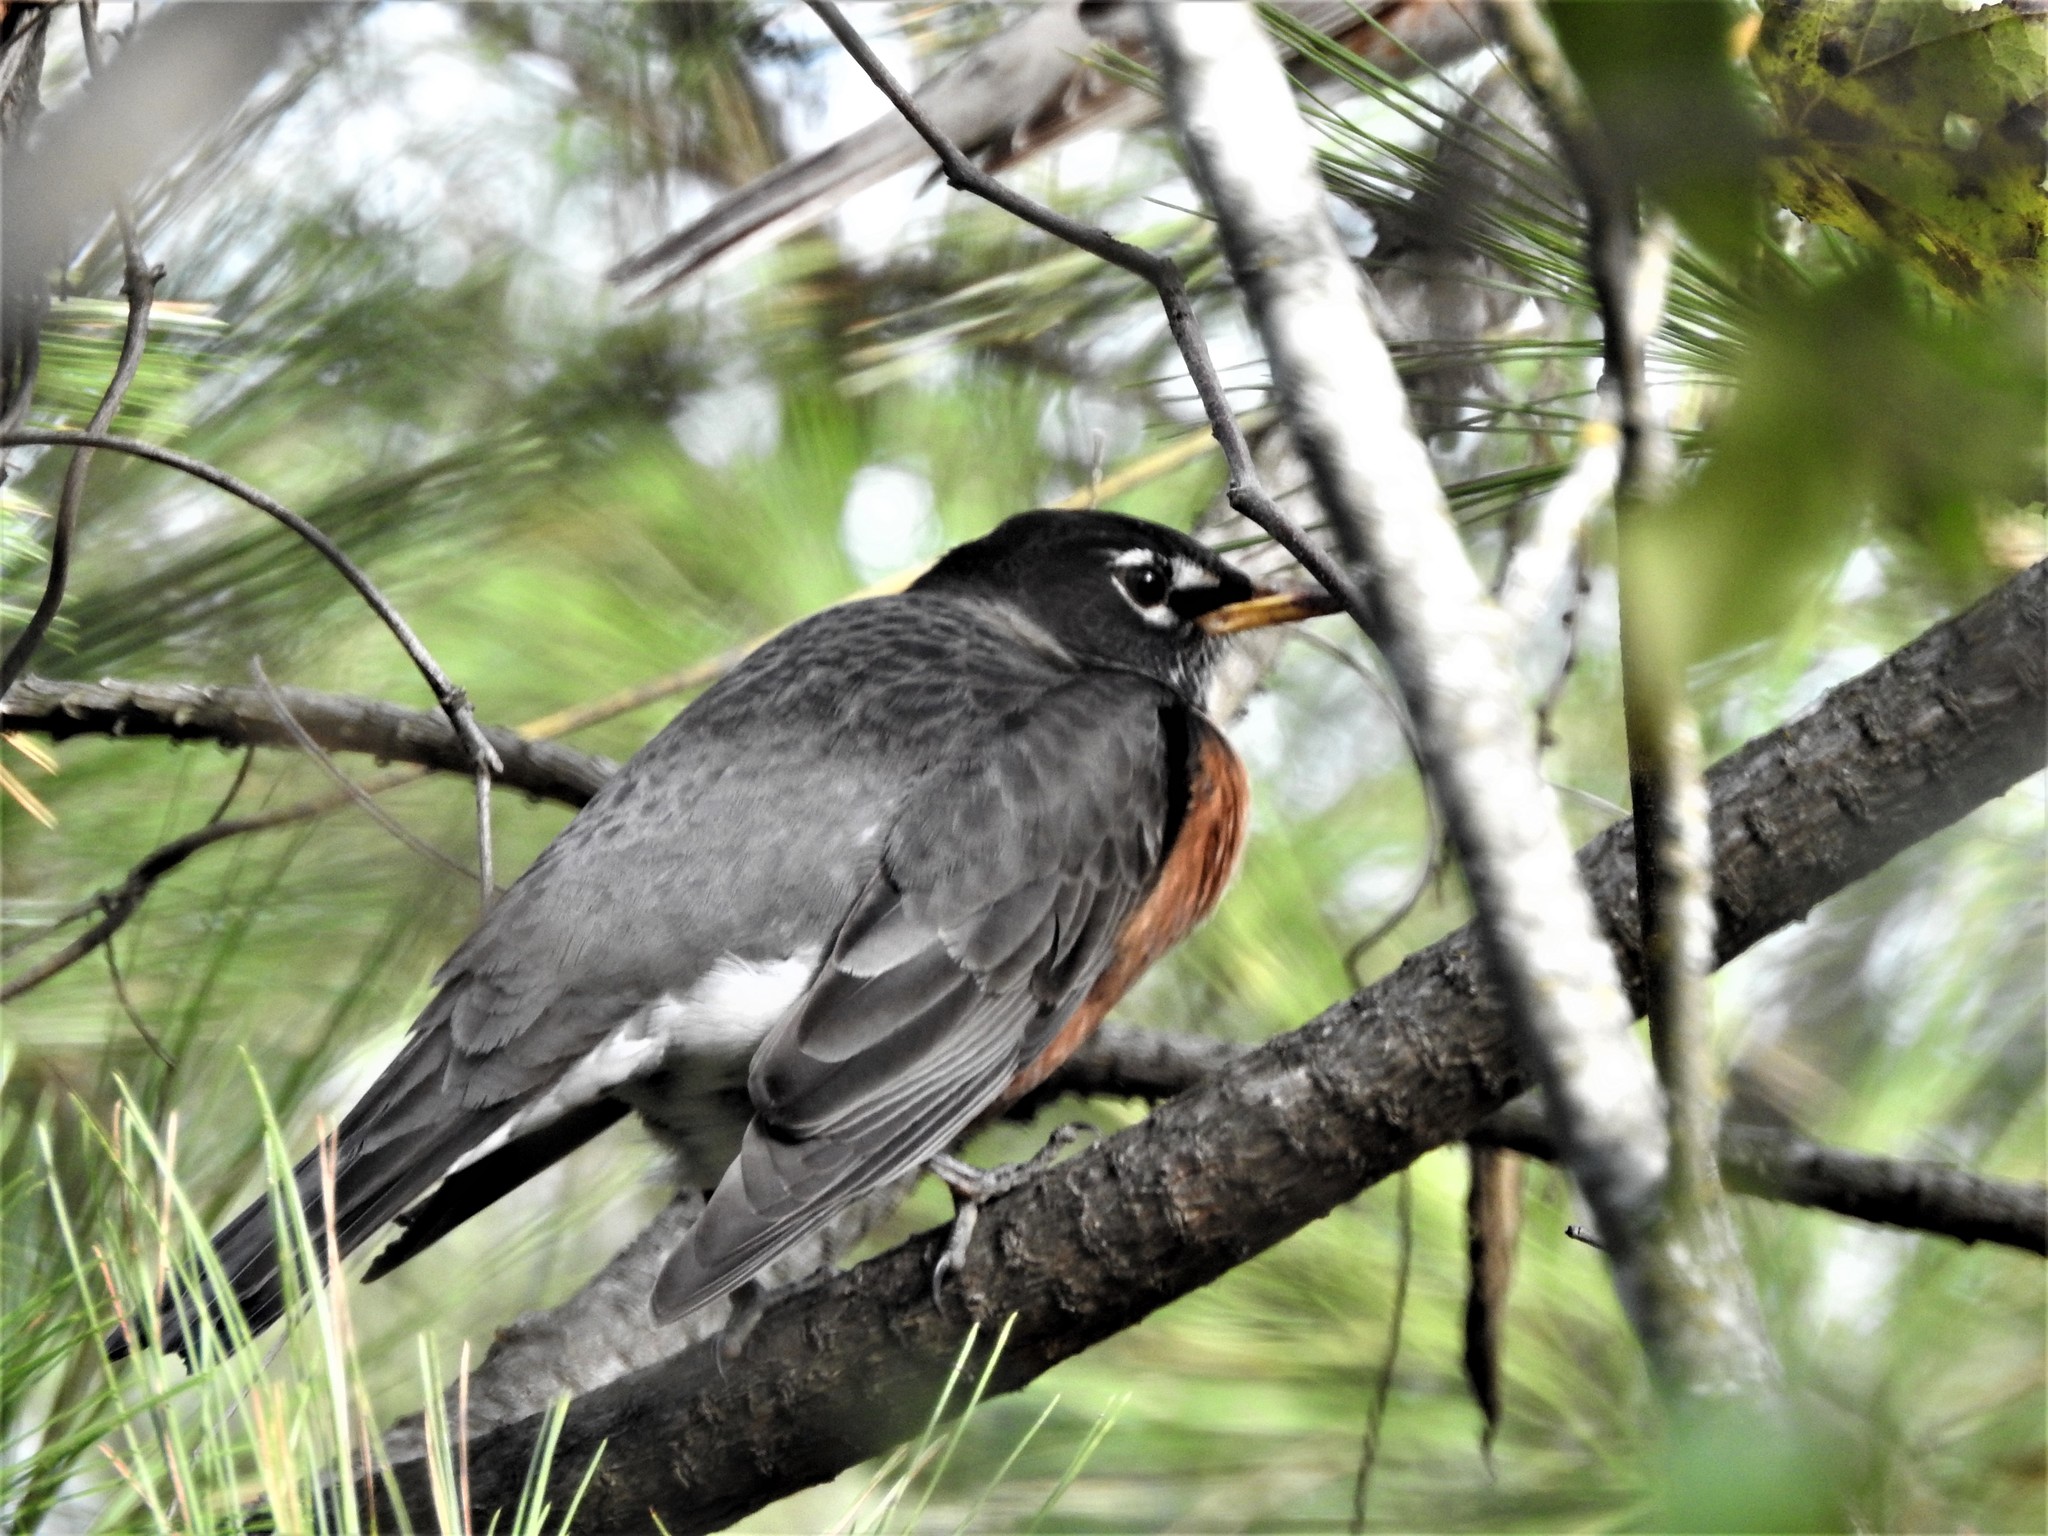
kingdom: Animalia
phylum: Chordata
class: Aves
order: Passeriformes
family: Turdidae
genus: Turdus
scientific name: Turdus migratorius
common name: American robin
